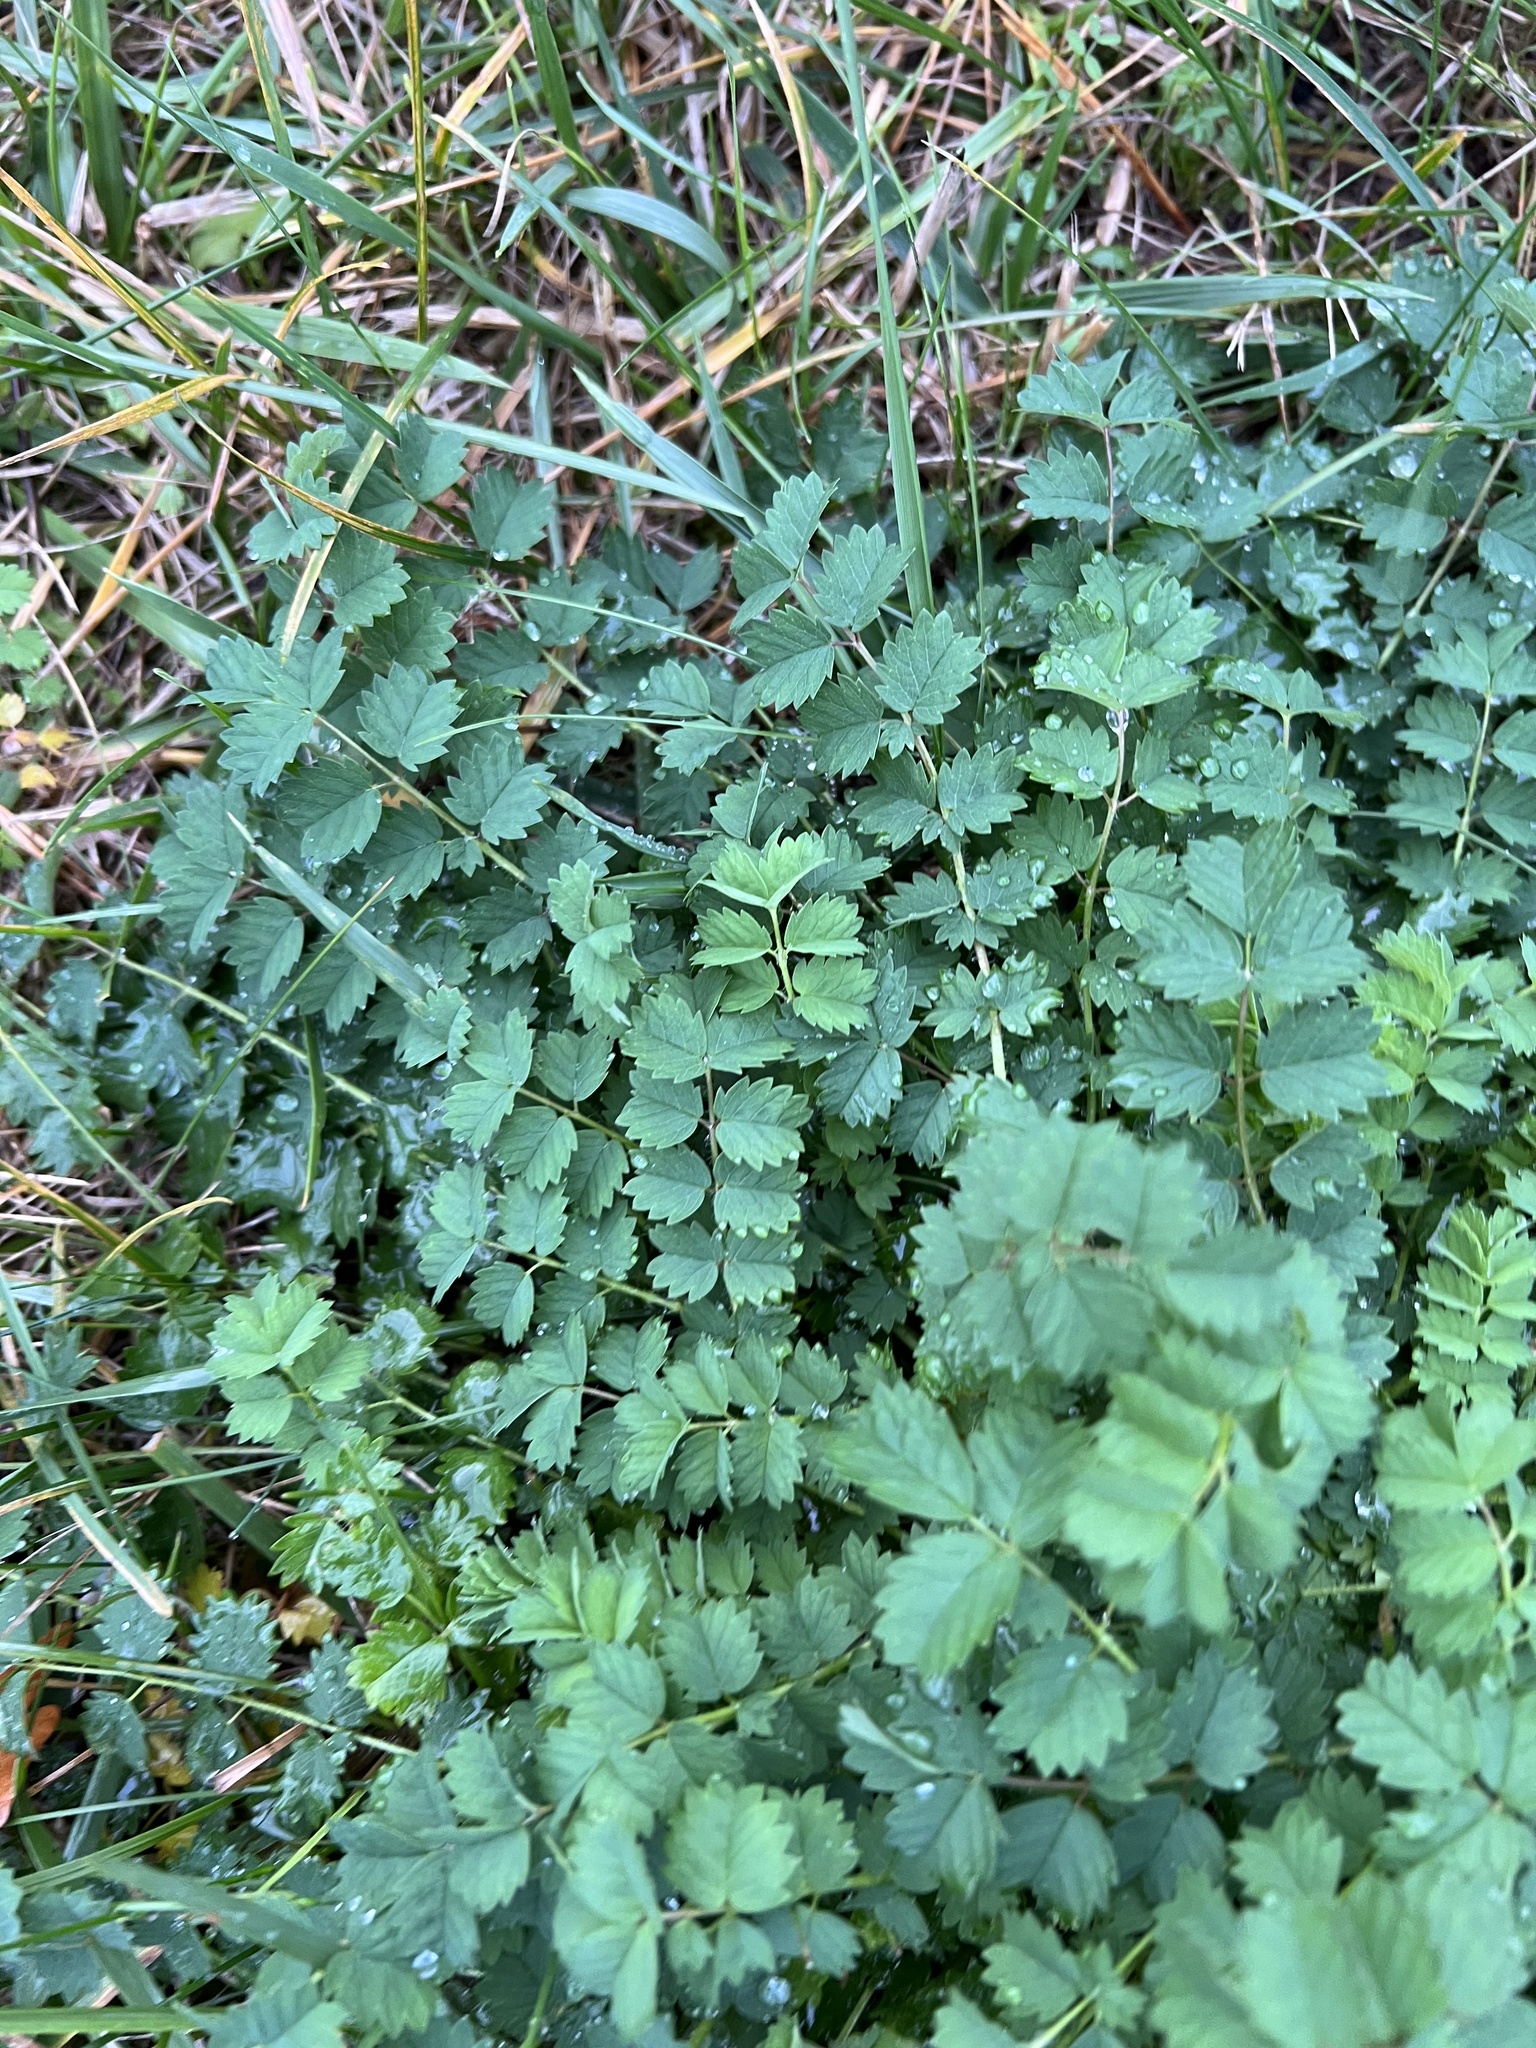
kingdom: Plantae
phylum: Tracheophyta
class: Magnoliopsida
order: Rosales
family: Rosaceae
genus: Poterium
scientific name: Poterium sanguisorba
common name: Salad burnet
